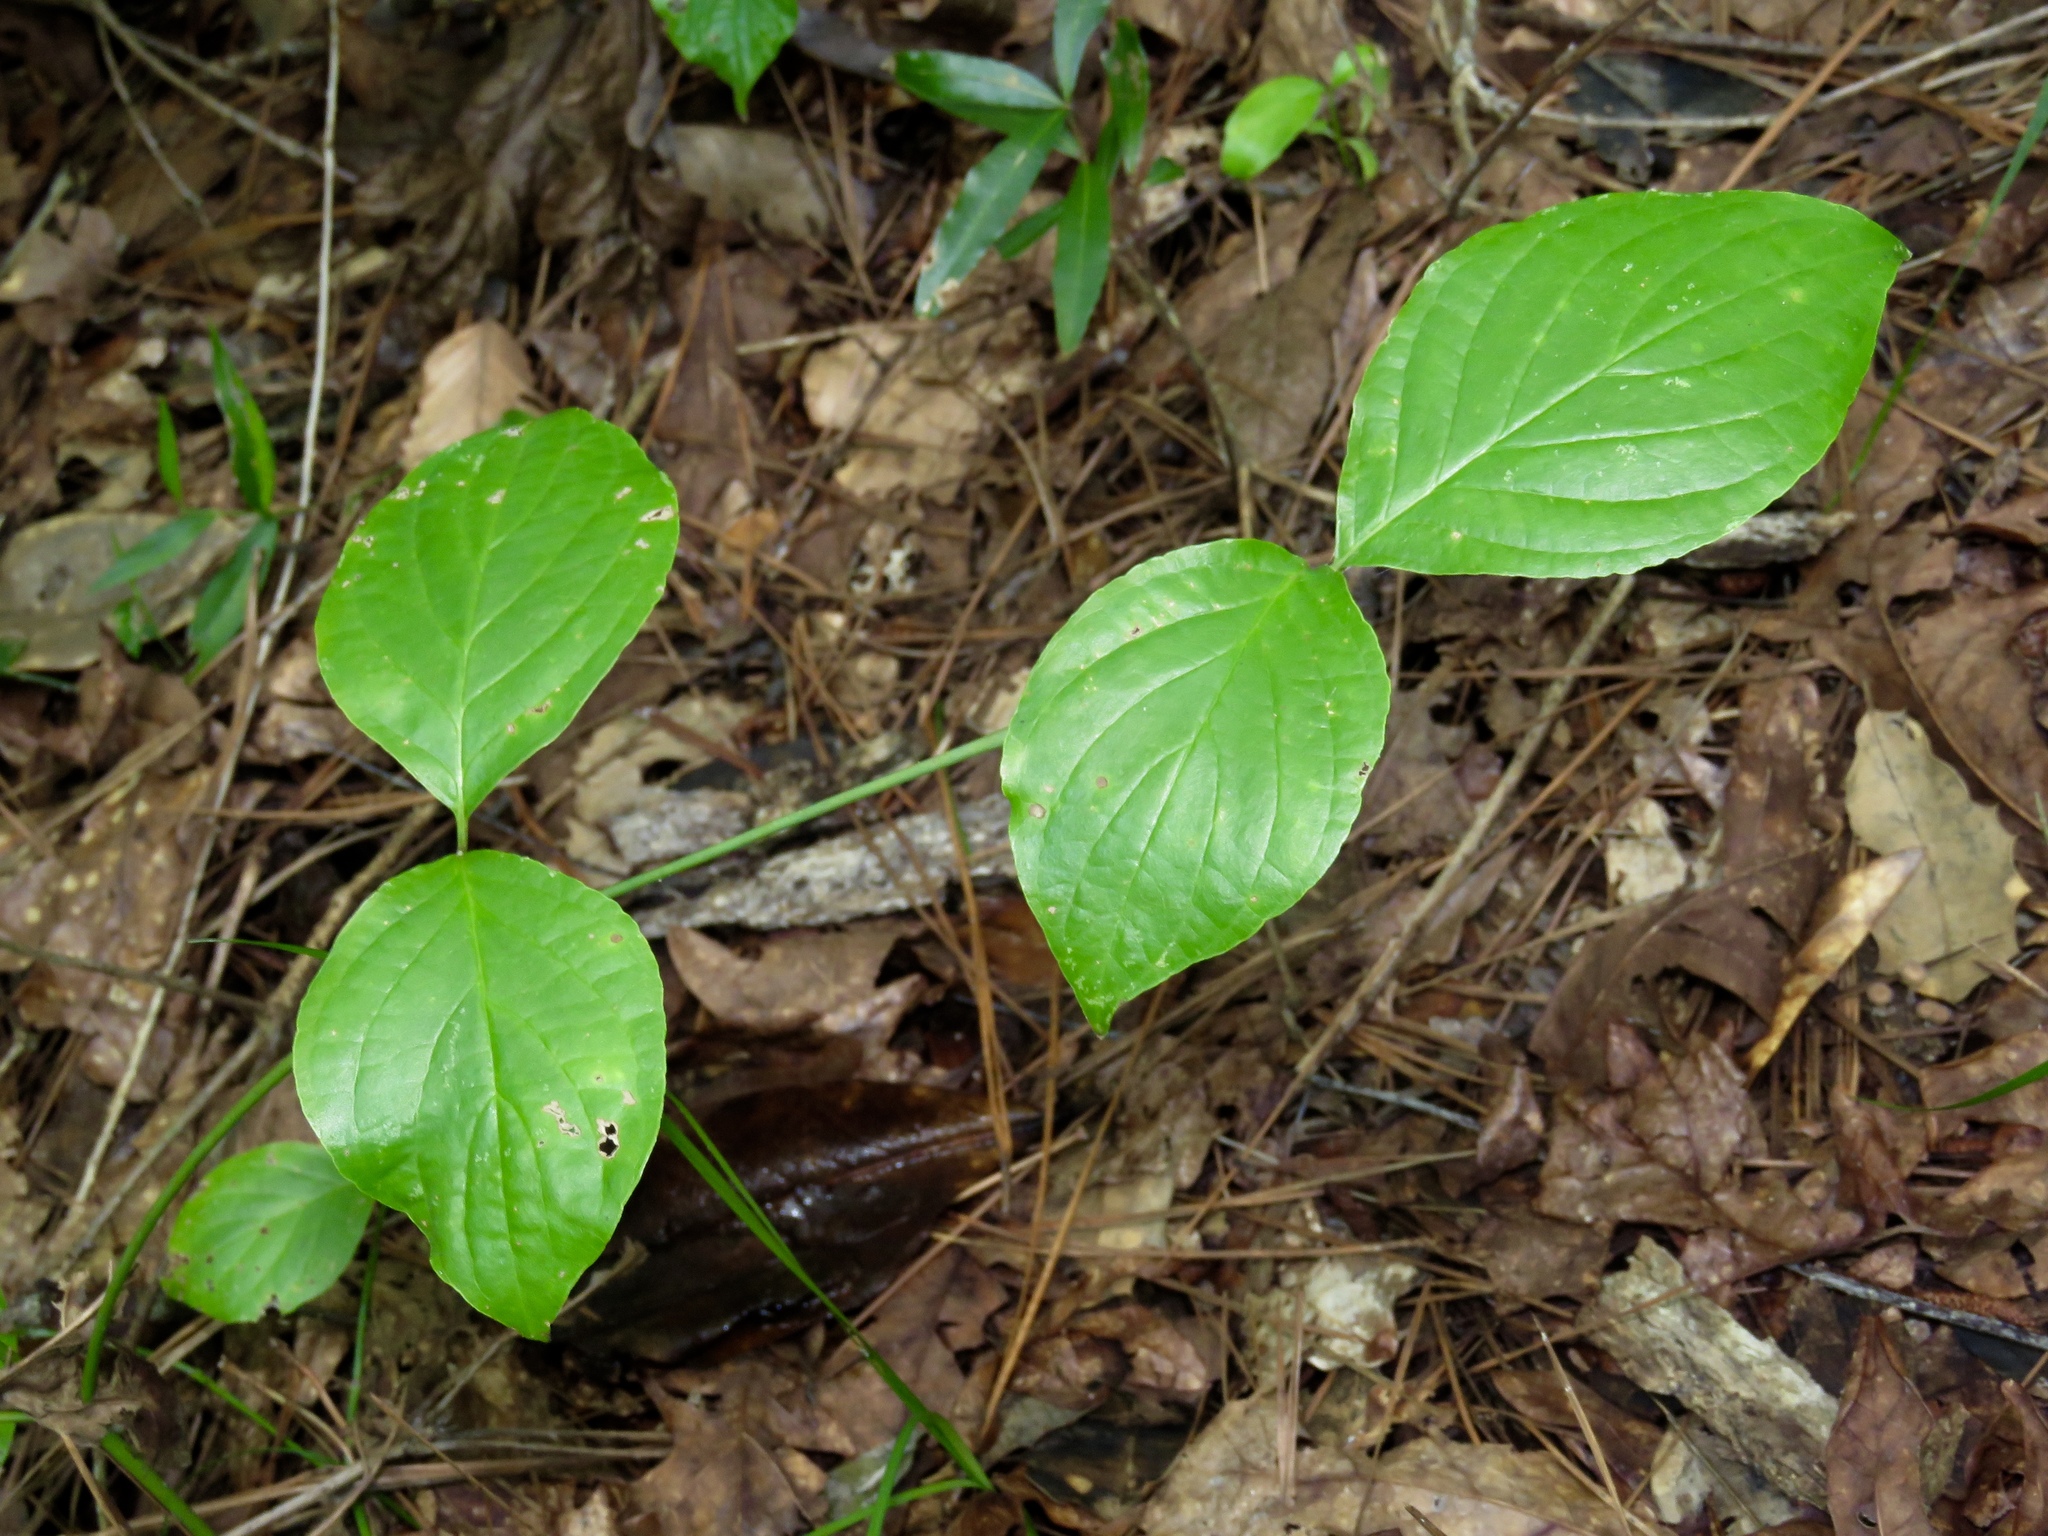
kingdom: Plantae
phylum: Tracheophyta
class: Magnoliopsida
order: Cornales
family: Cornaceae
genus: Cornus
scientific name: Cornus florida
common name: Flowering dogwood
